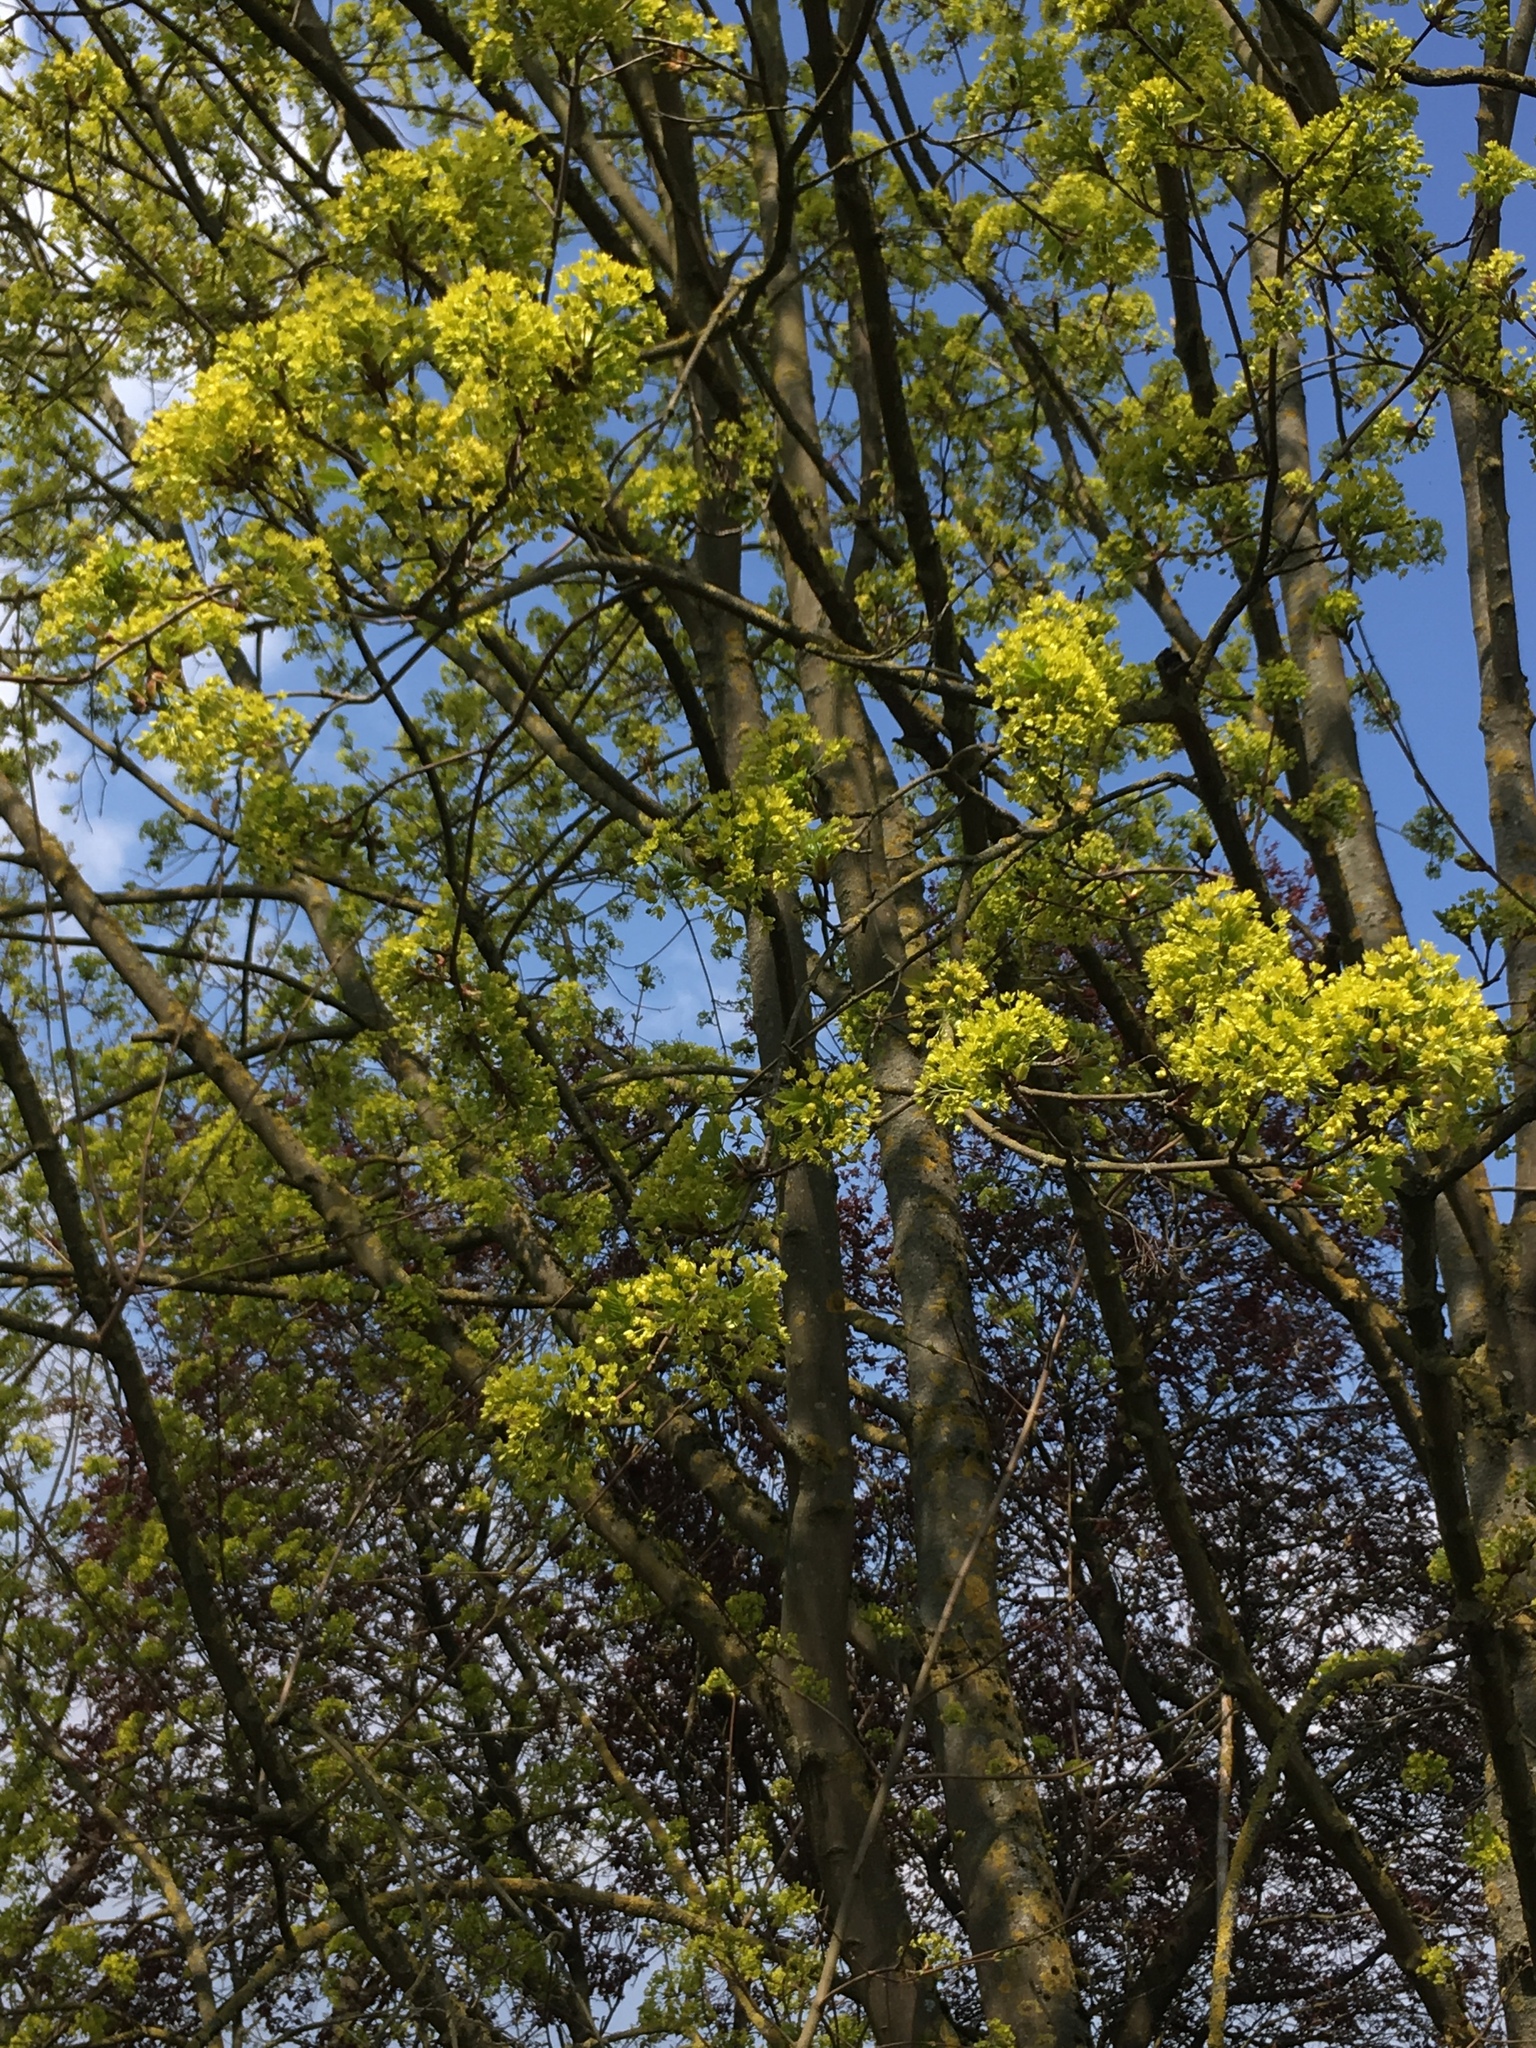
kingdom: Plantae
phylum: Tracheophyta
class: Magnoliopsida
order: Sapindales
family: Sapindaceae
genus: Acer
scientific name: Acer platanoides
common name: Norway maple
